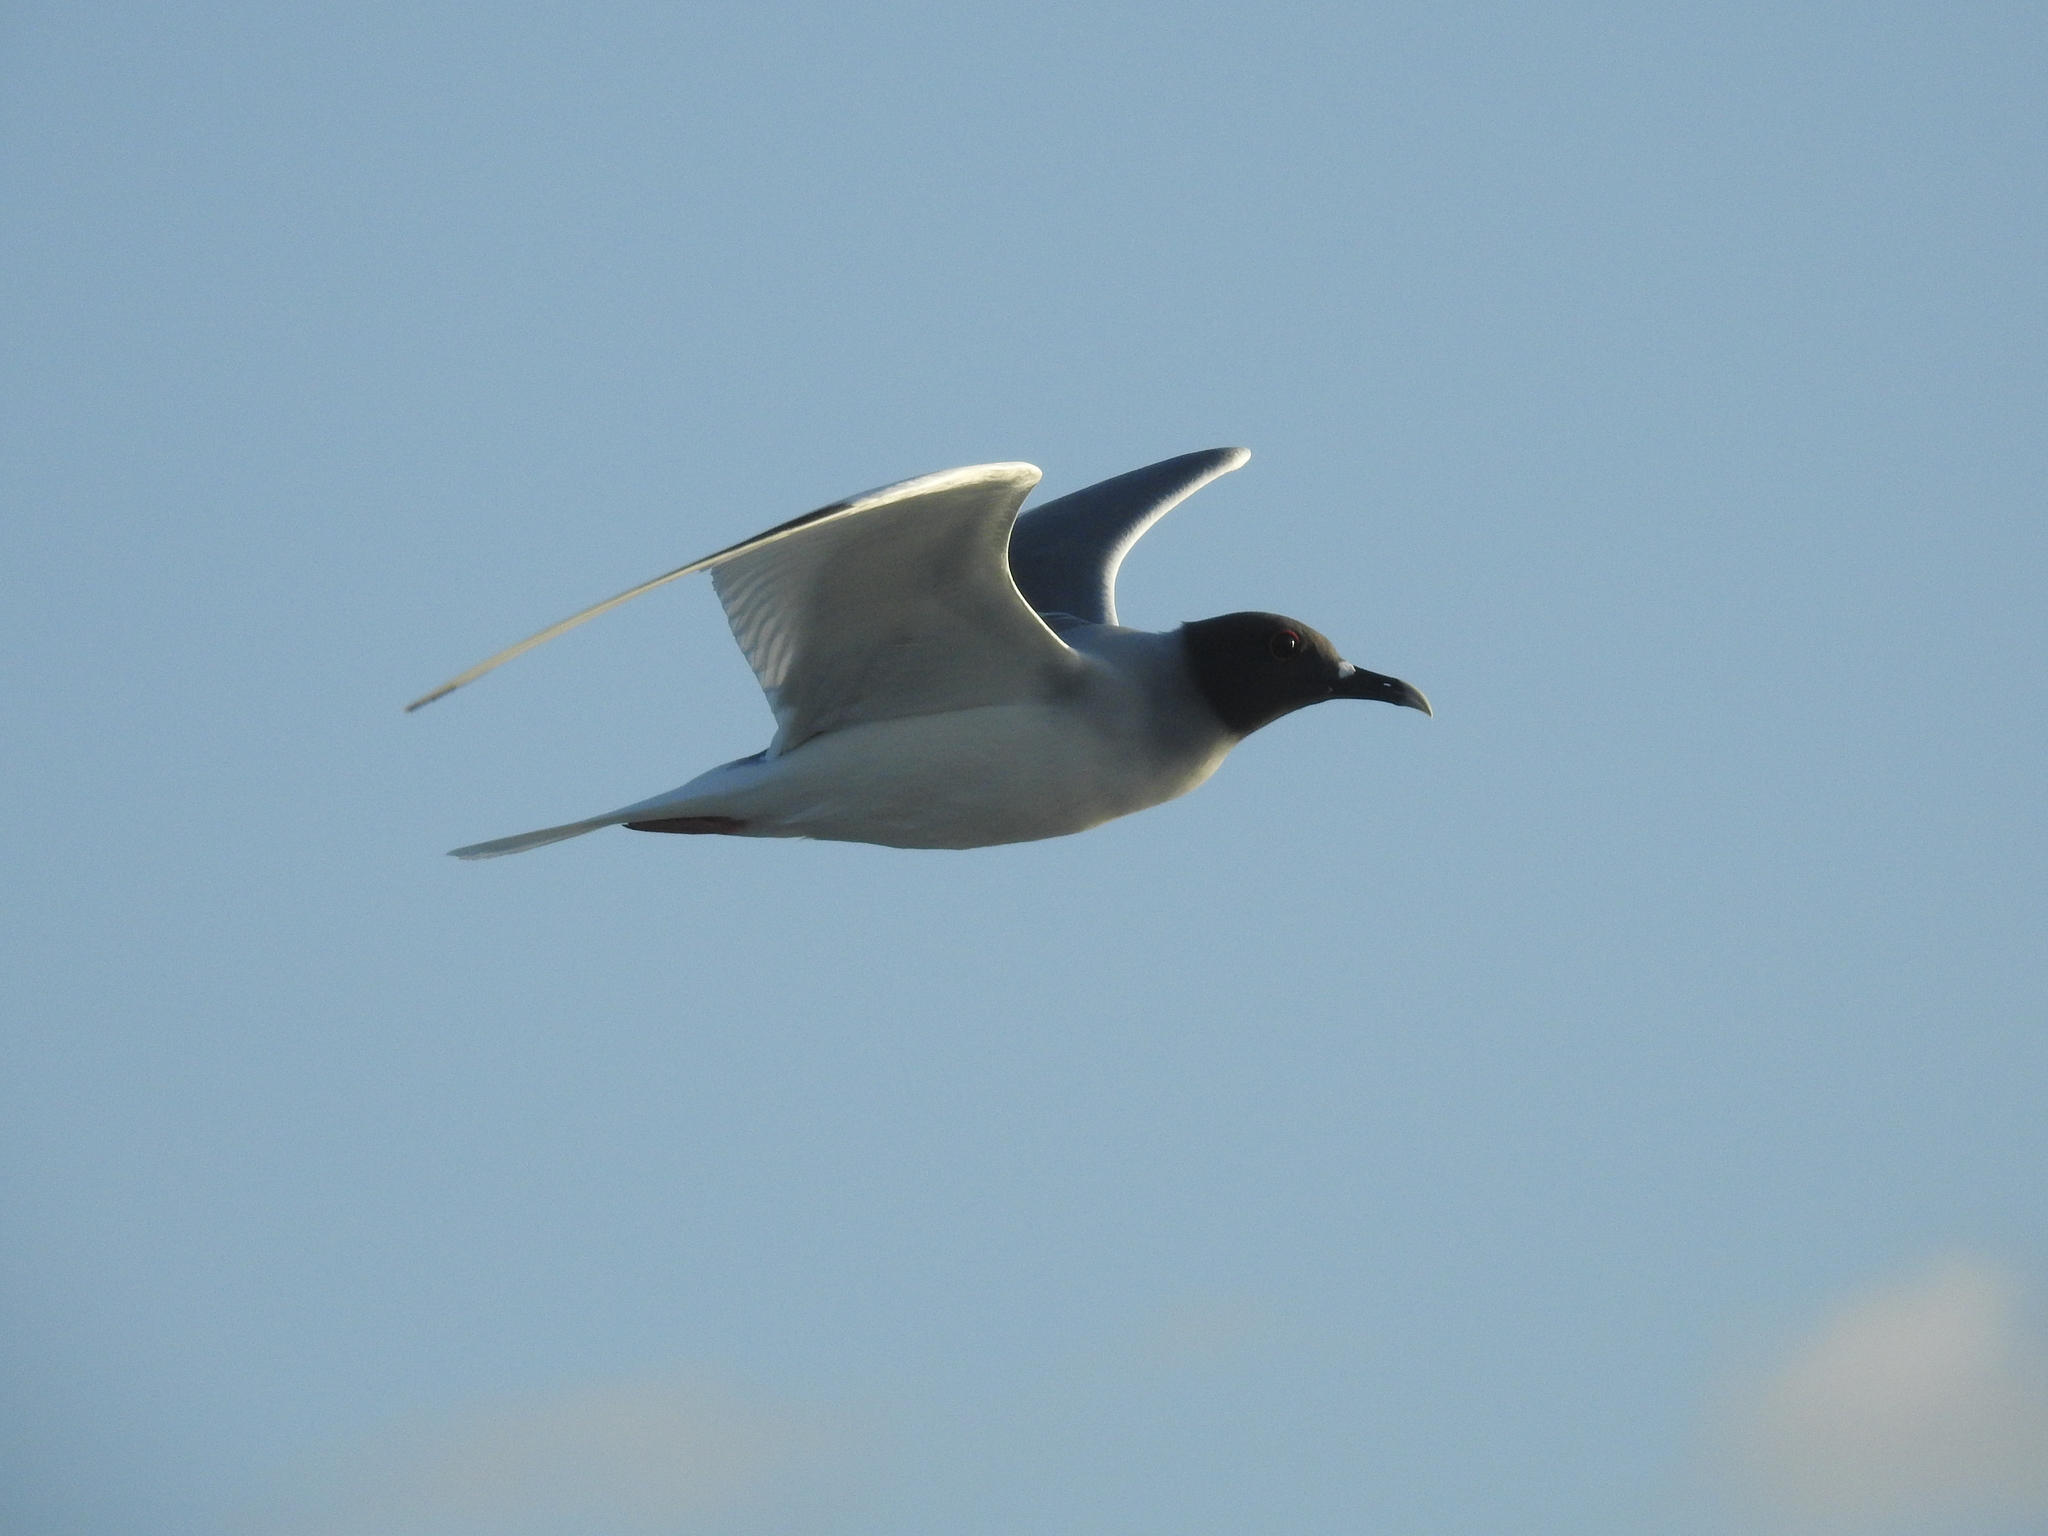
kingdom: Animalia
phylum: Chordata
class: Aves
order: Charadriiformes
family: Laridae
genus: Creagrus
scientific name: Creagrus furcatus
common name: Swallow-tailed gull
